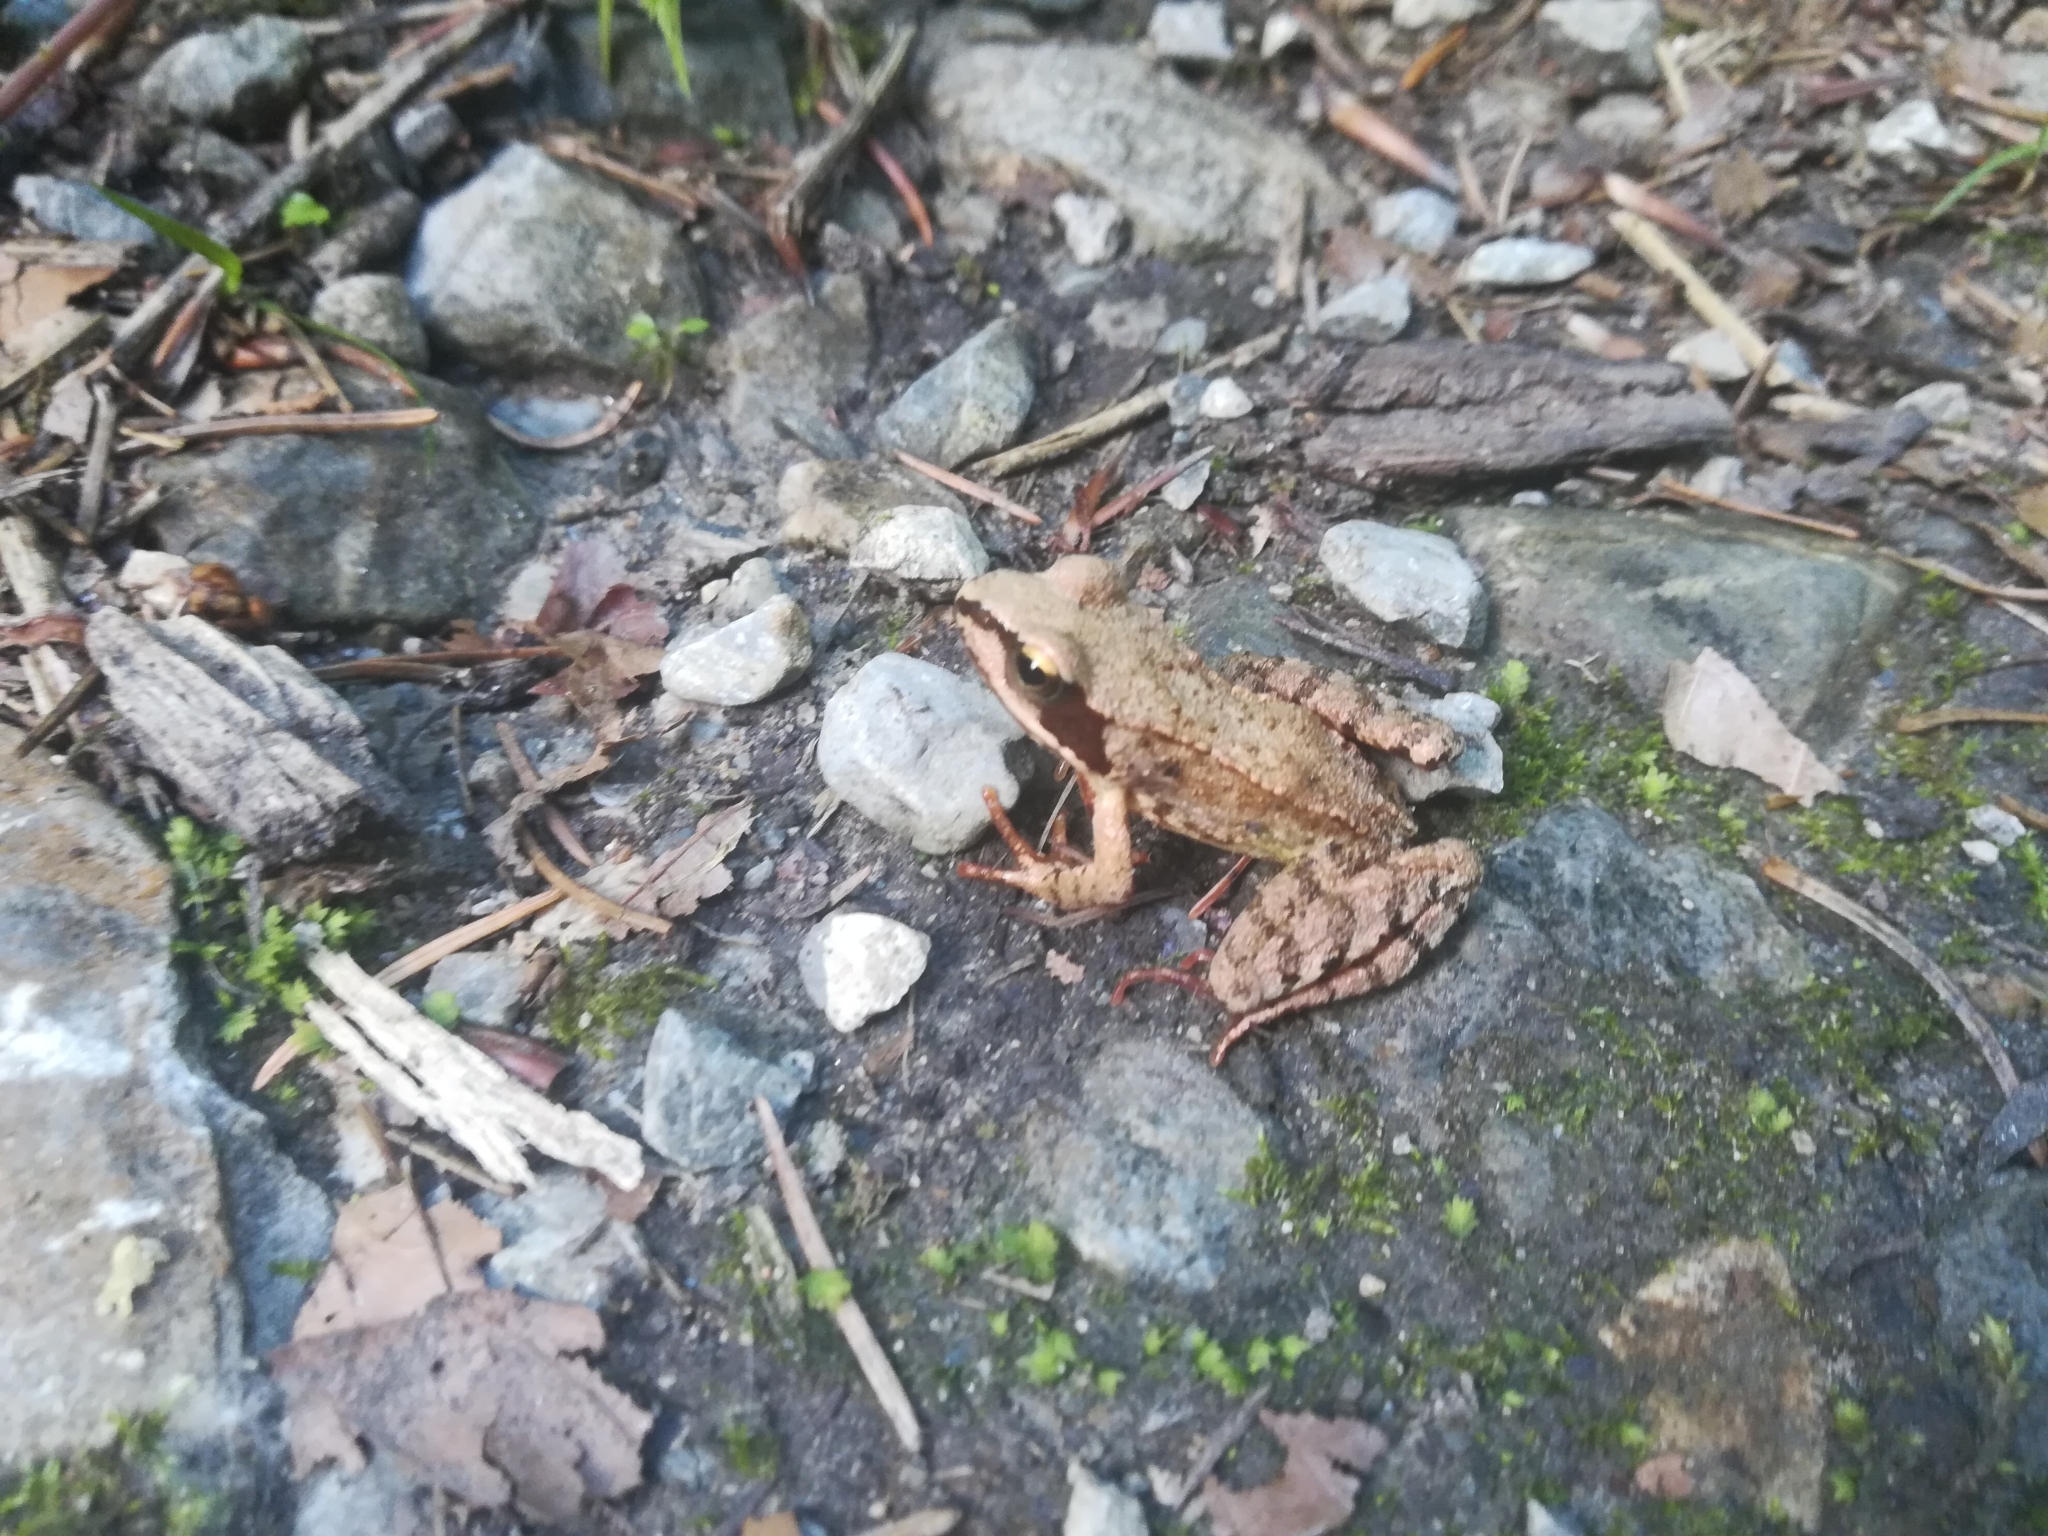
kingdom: Animalia
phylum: Chordata
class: Amphibia
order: Anura
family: Ranidae
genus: Rana
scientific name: Rana temporaria
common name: Common frog
